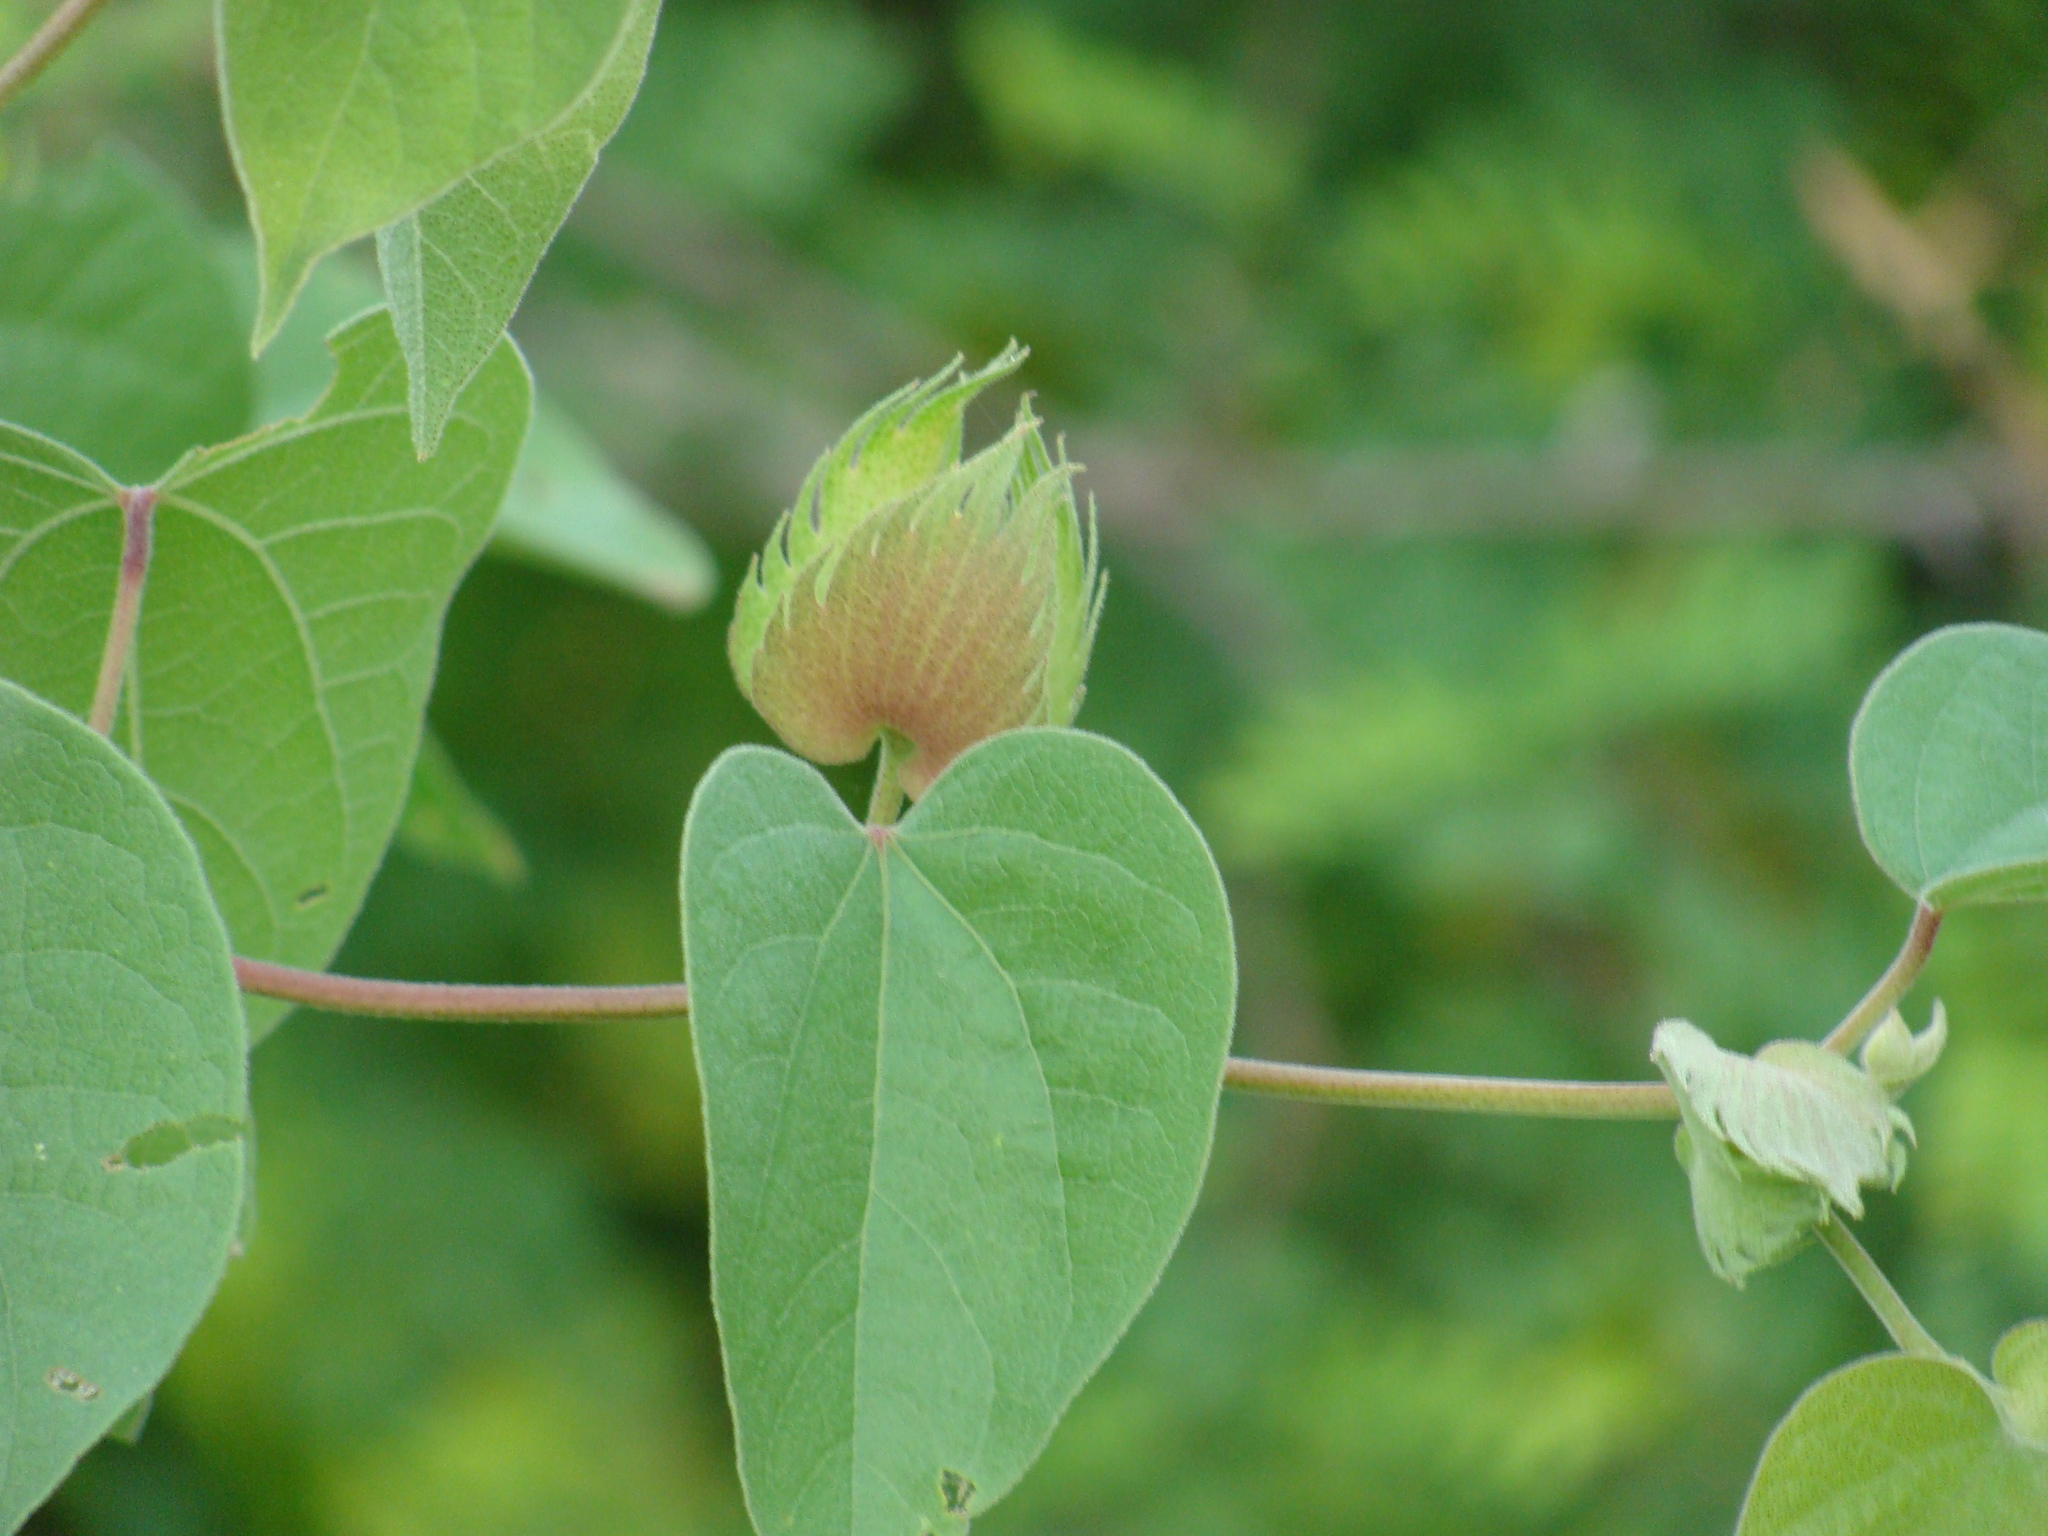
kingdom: Plantae
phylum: Tracheophyta
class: Magnoliopsida
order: Malvales
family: Malvaceae
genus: Gossypium
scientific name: Gossypium klotzschianum
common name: Galapagos cotton
